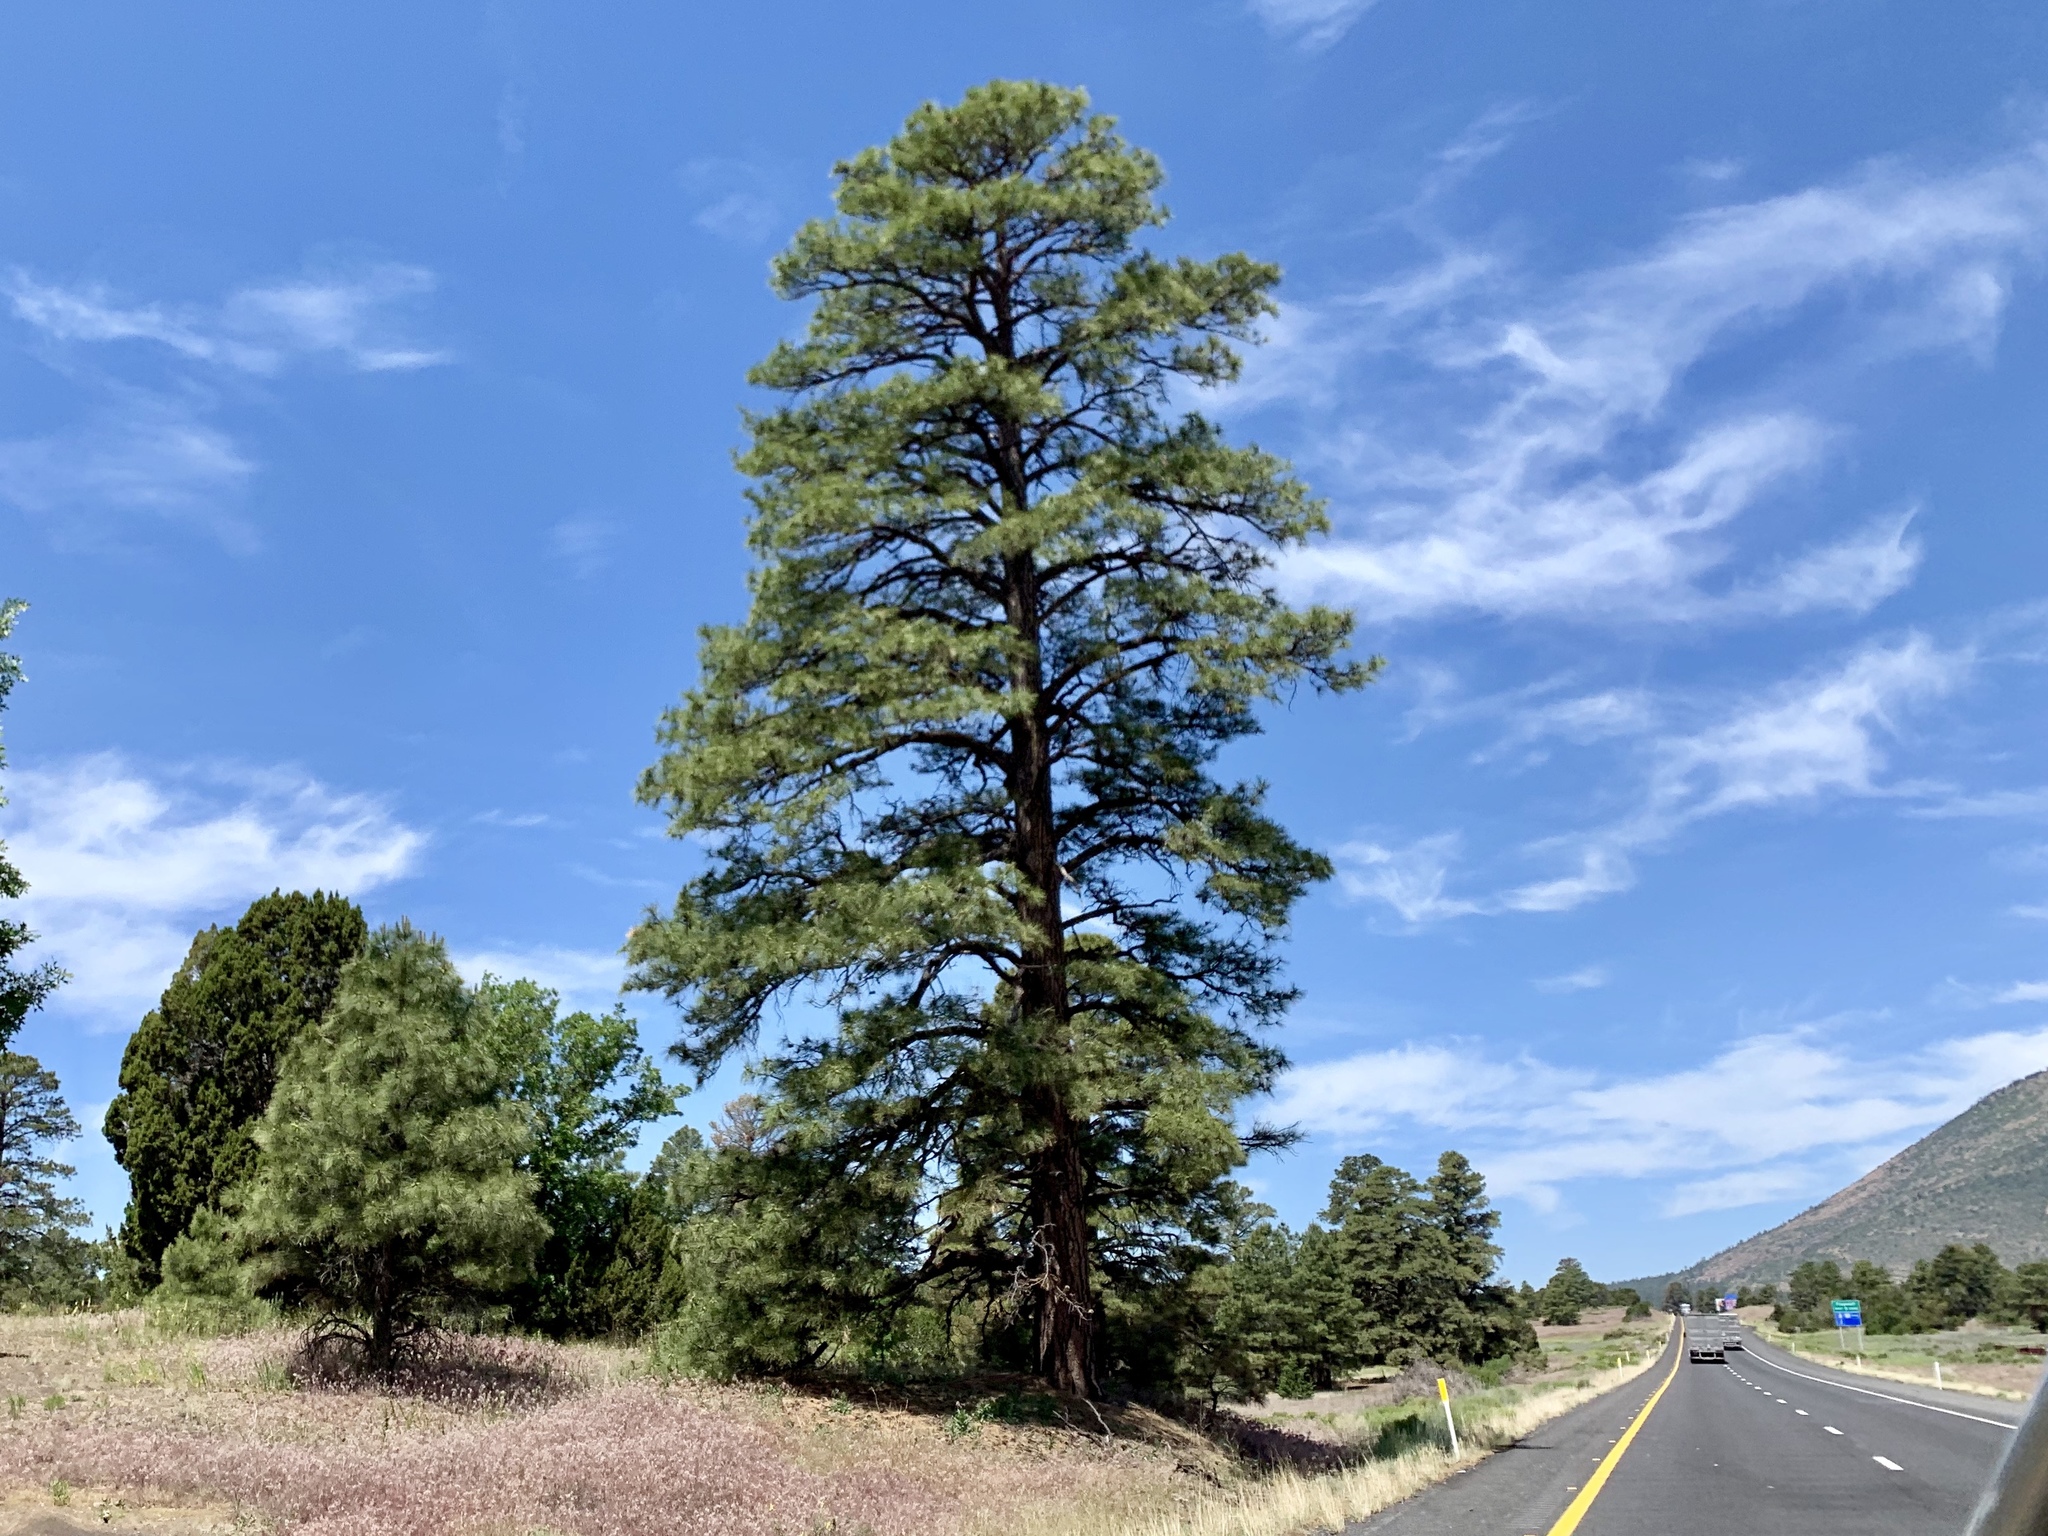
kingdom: Plantae
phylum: Tracheophyta
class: Pinopsida
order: Pinales
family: Pinaceae
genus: Pinus
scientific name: Pinus ponderosa
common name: Western yellow-pine
